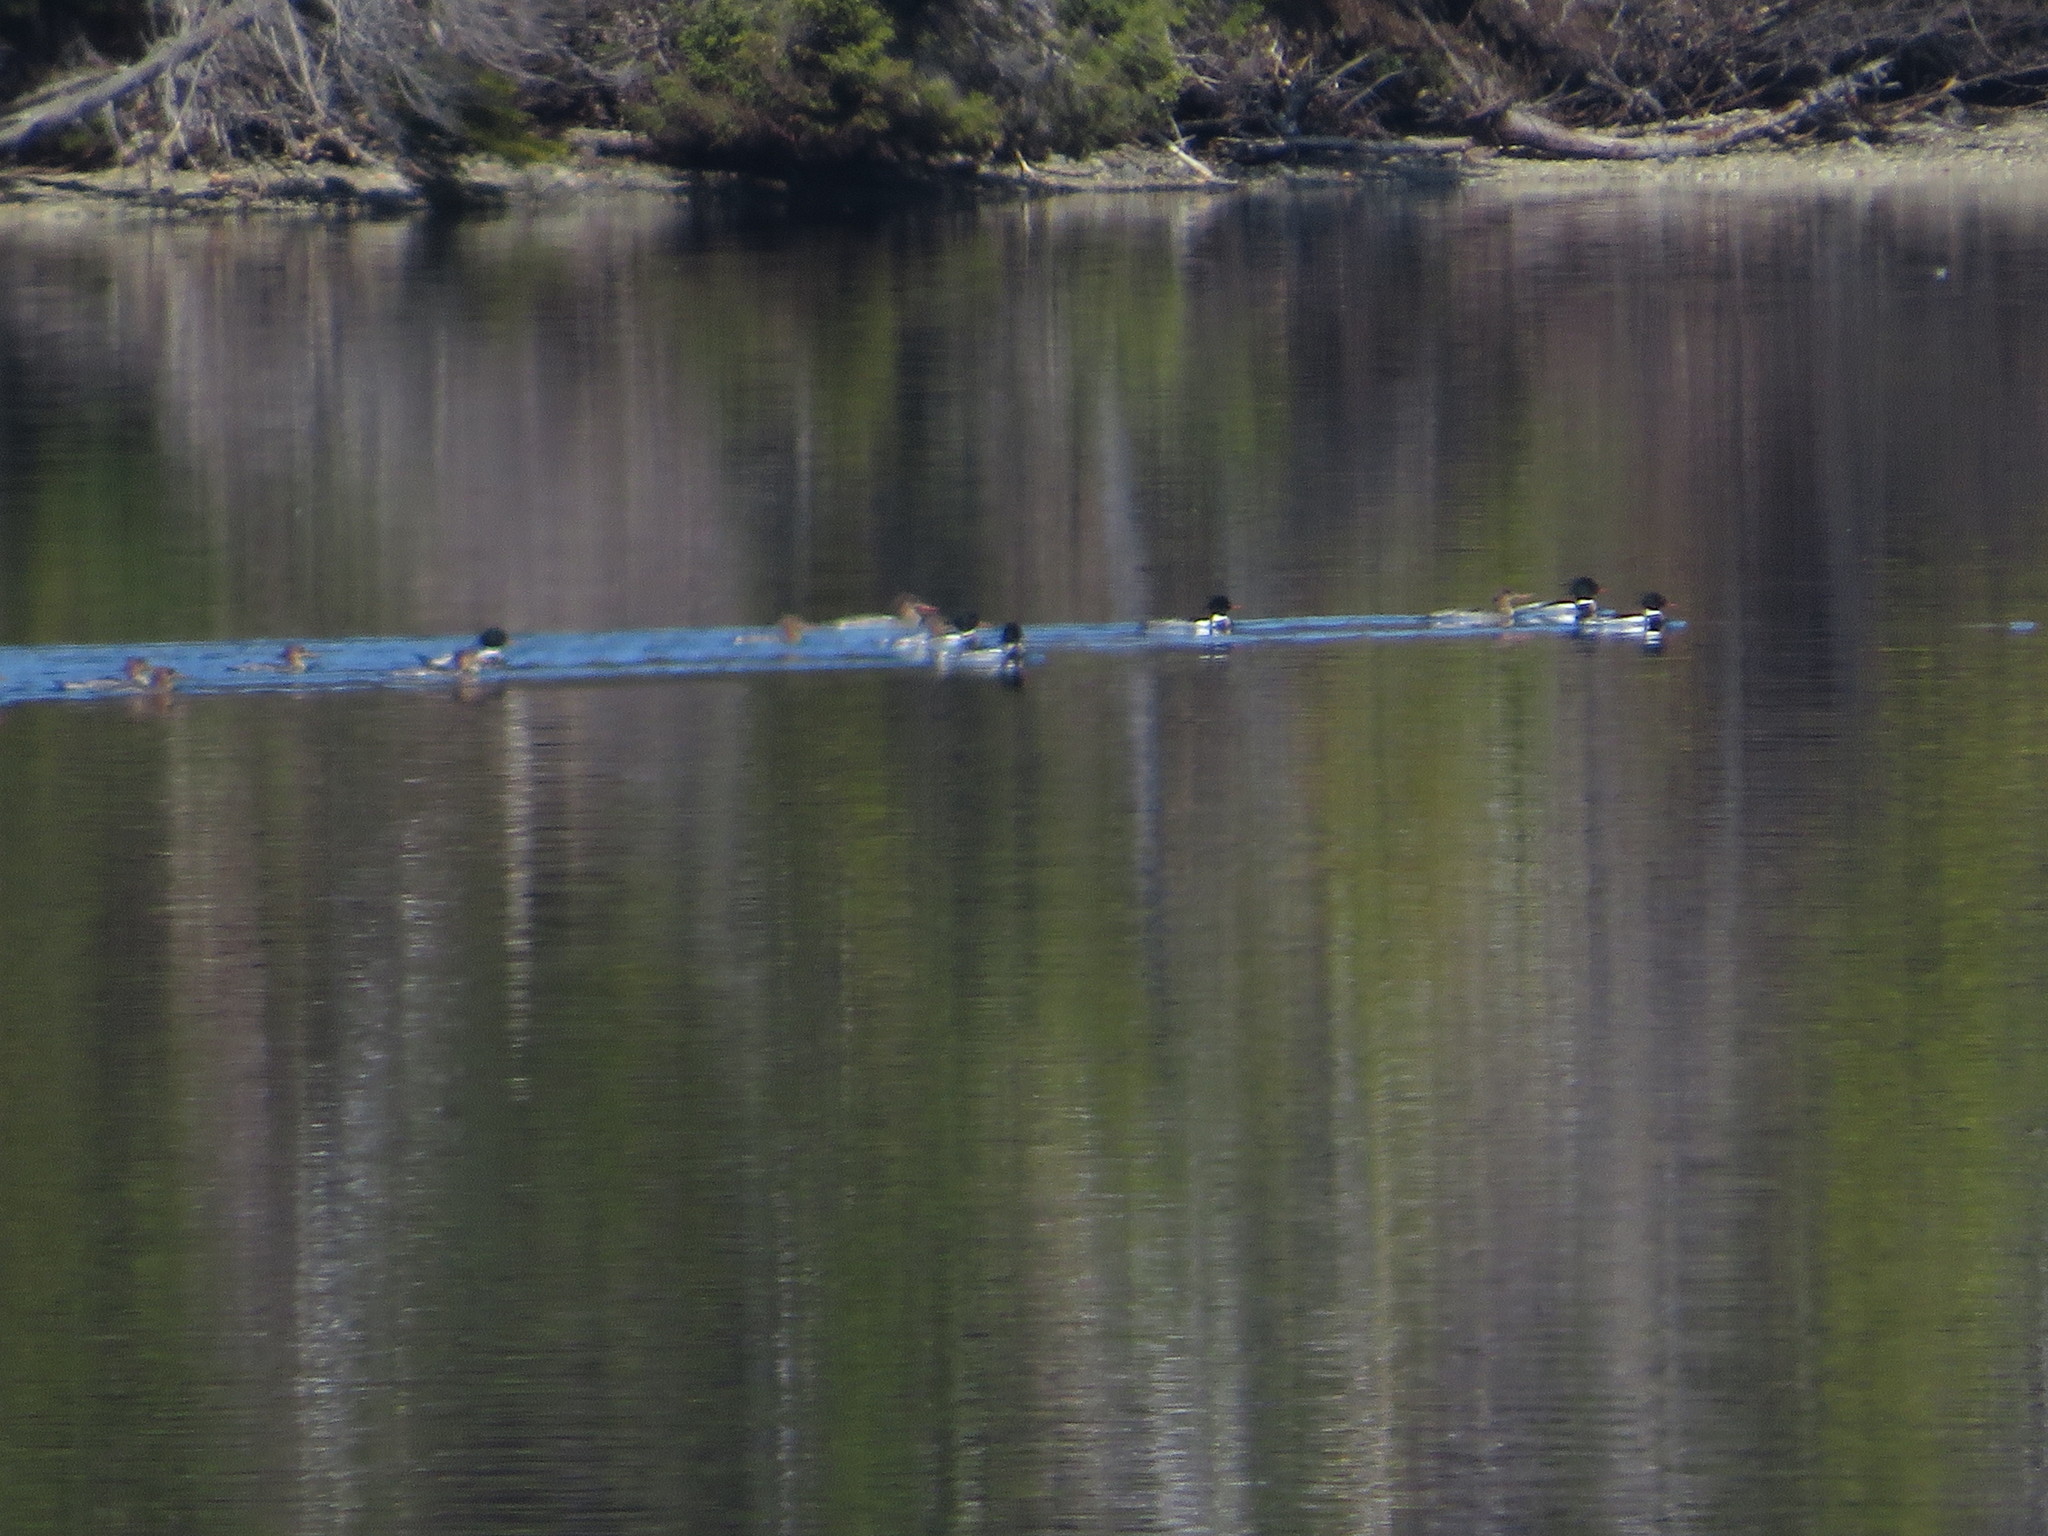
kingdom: Animalia
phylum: Chordata
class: Aves
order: Anseriformes
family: Anatidae
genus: Mergus
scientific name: Mergus serrator
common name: Red-breasted merganser
